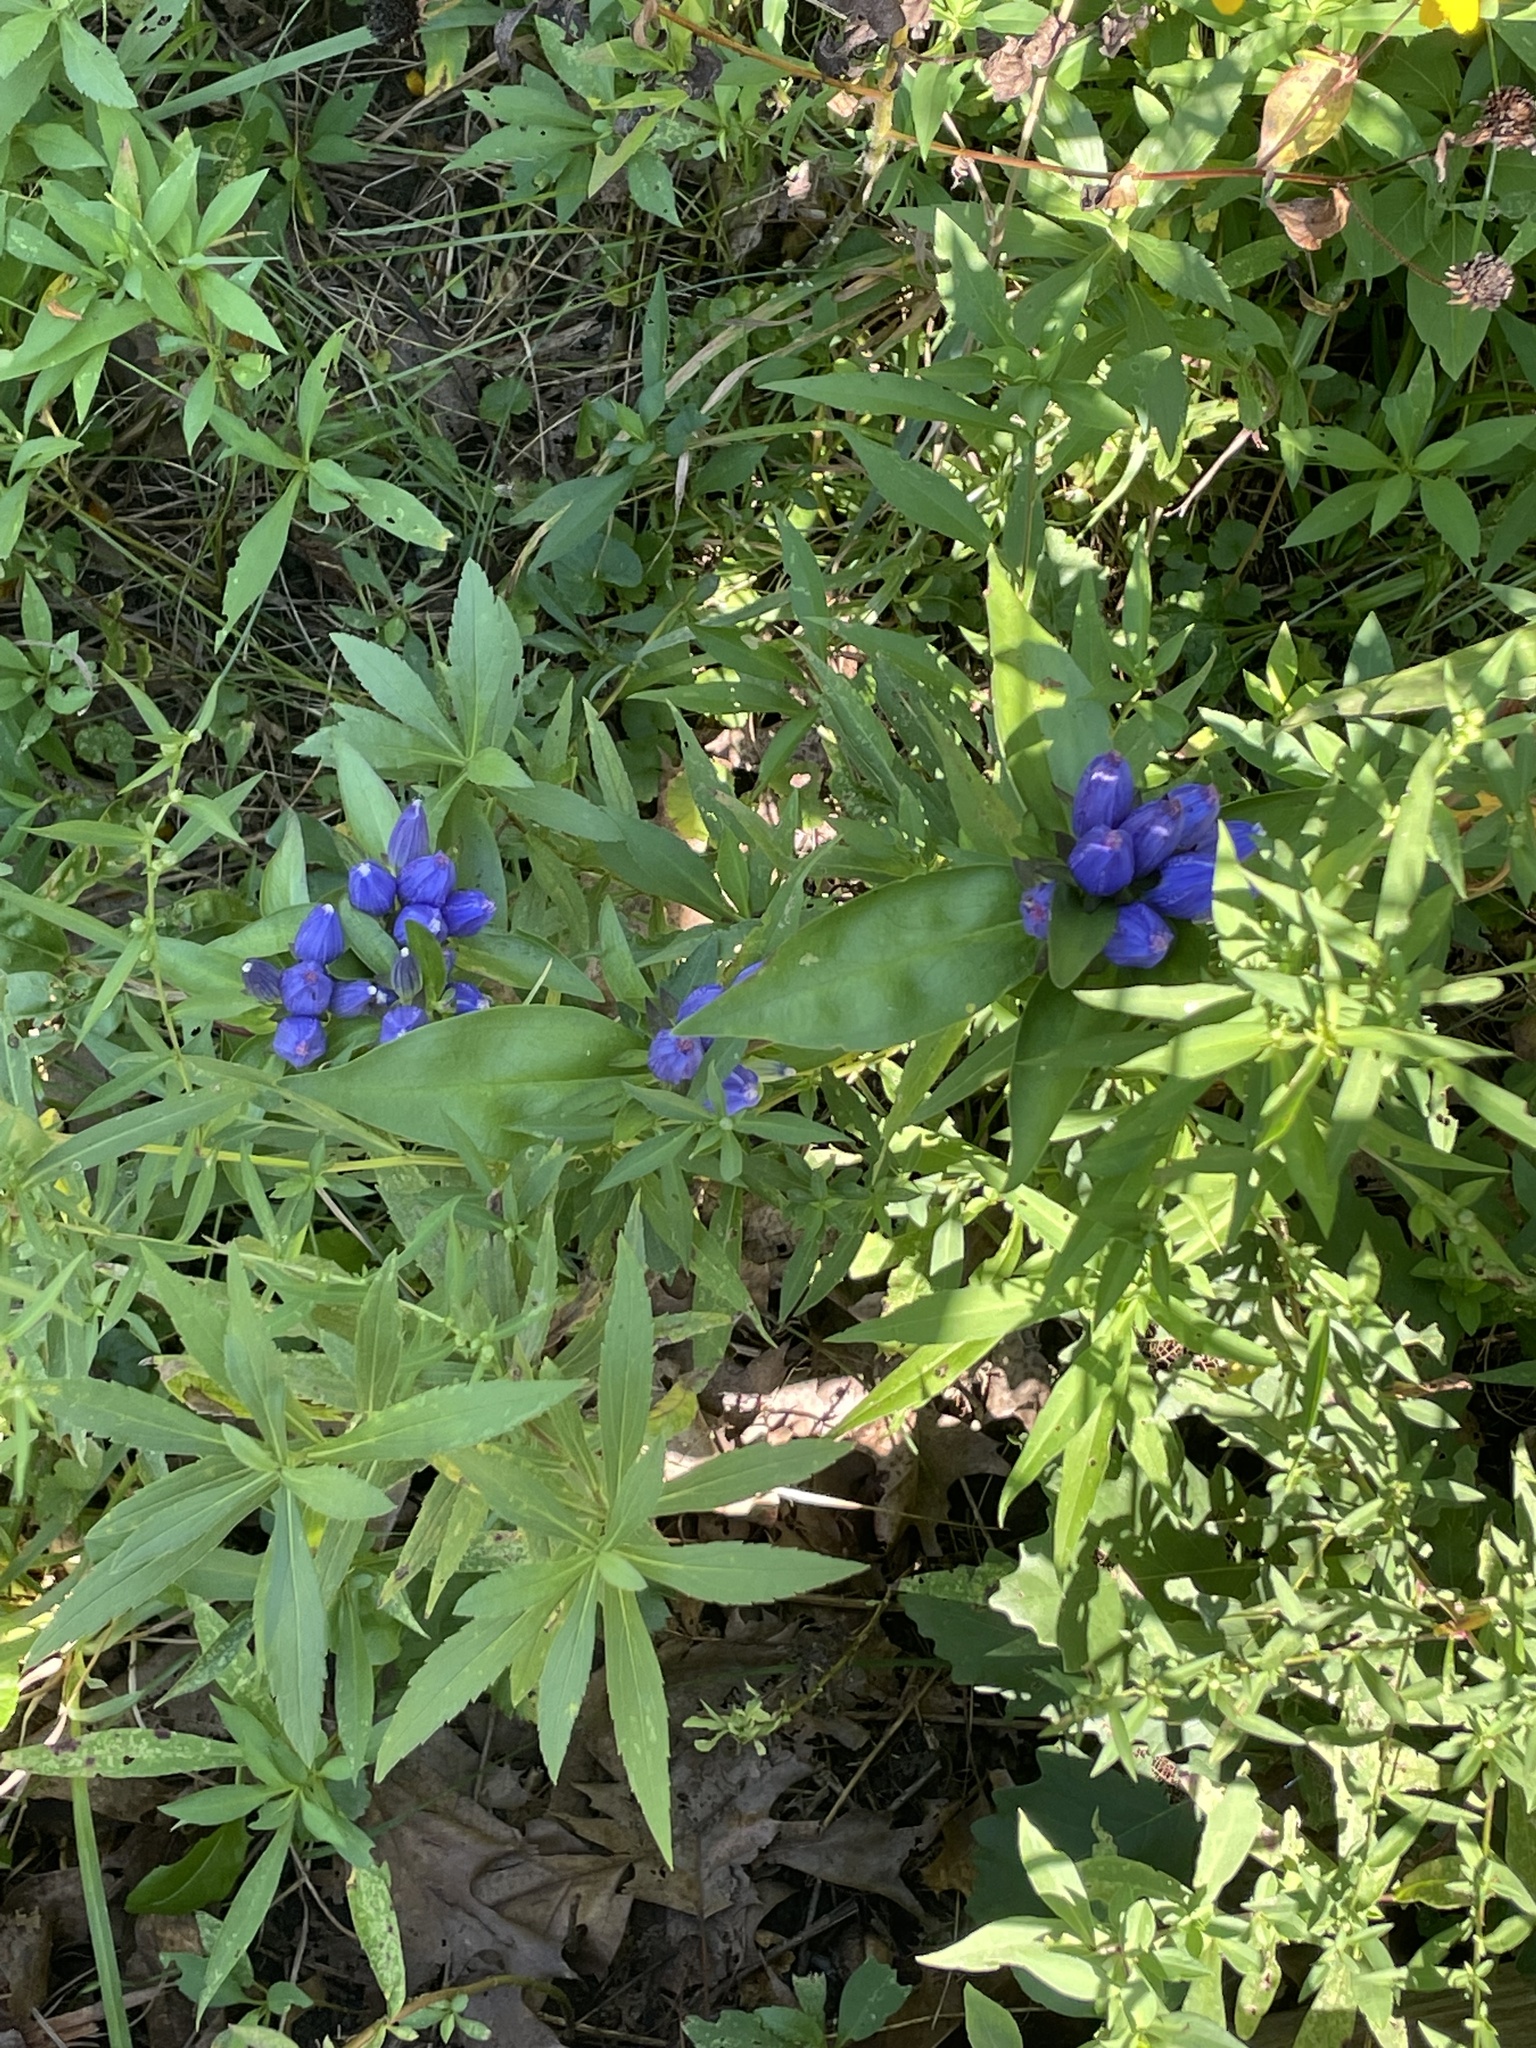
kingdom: Plantae
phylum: Tracheophyta
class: Magnoliopsida
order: Gentianales
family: Gentianaceae
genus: Gentiana
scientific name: Gentiana andrewsii
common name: Bottle gentian
